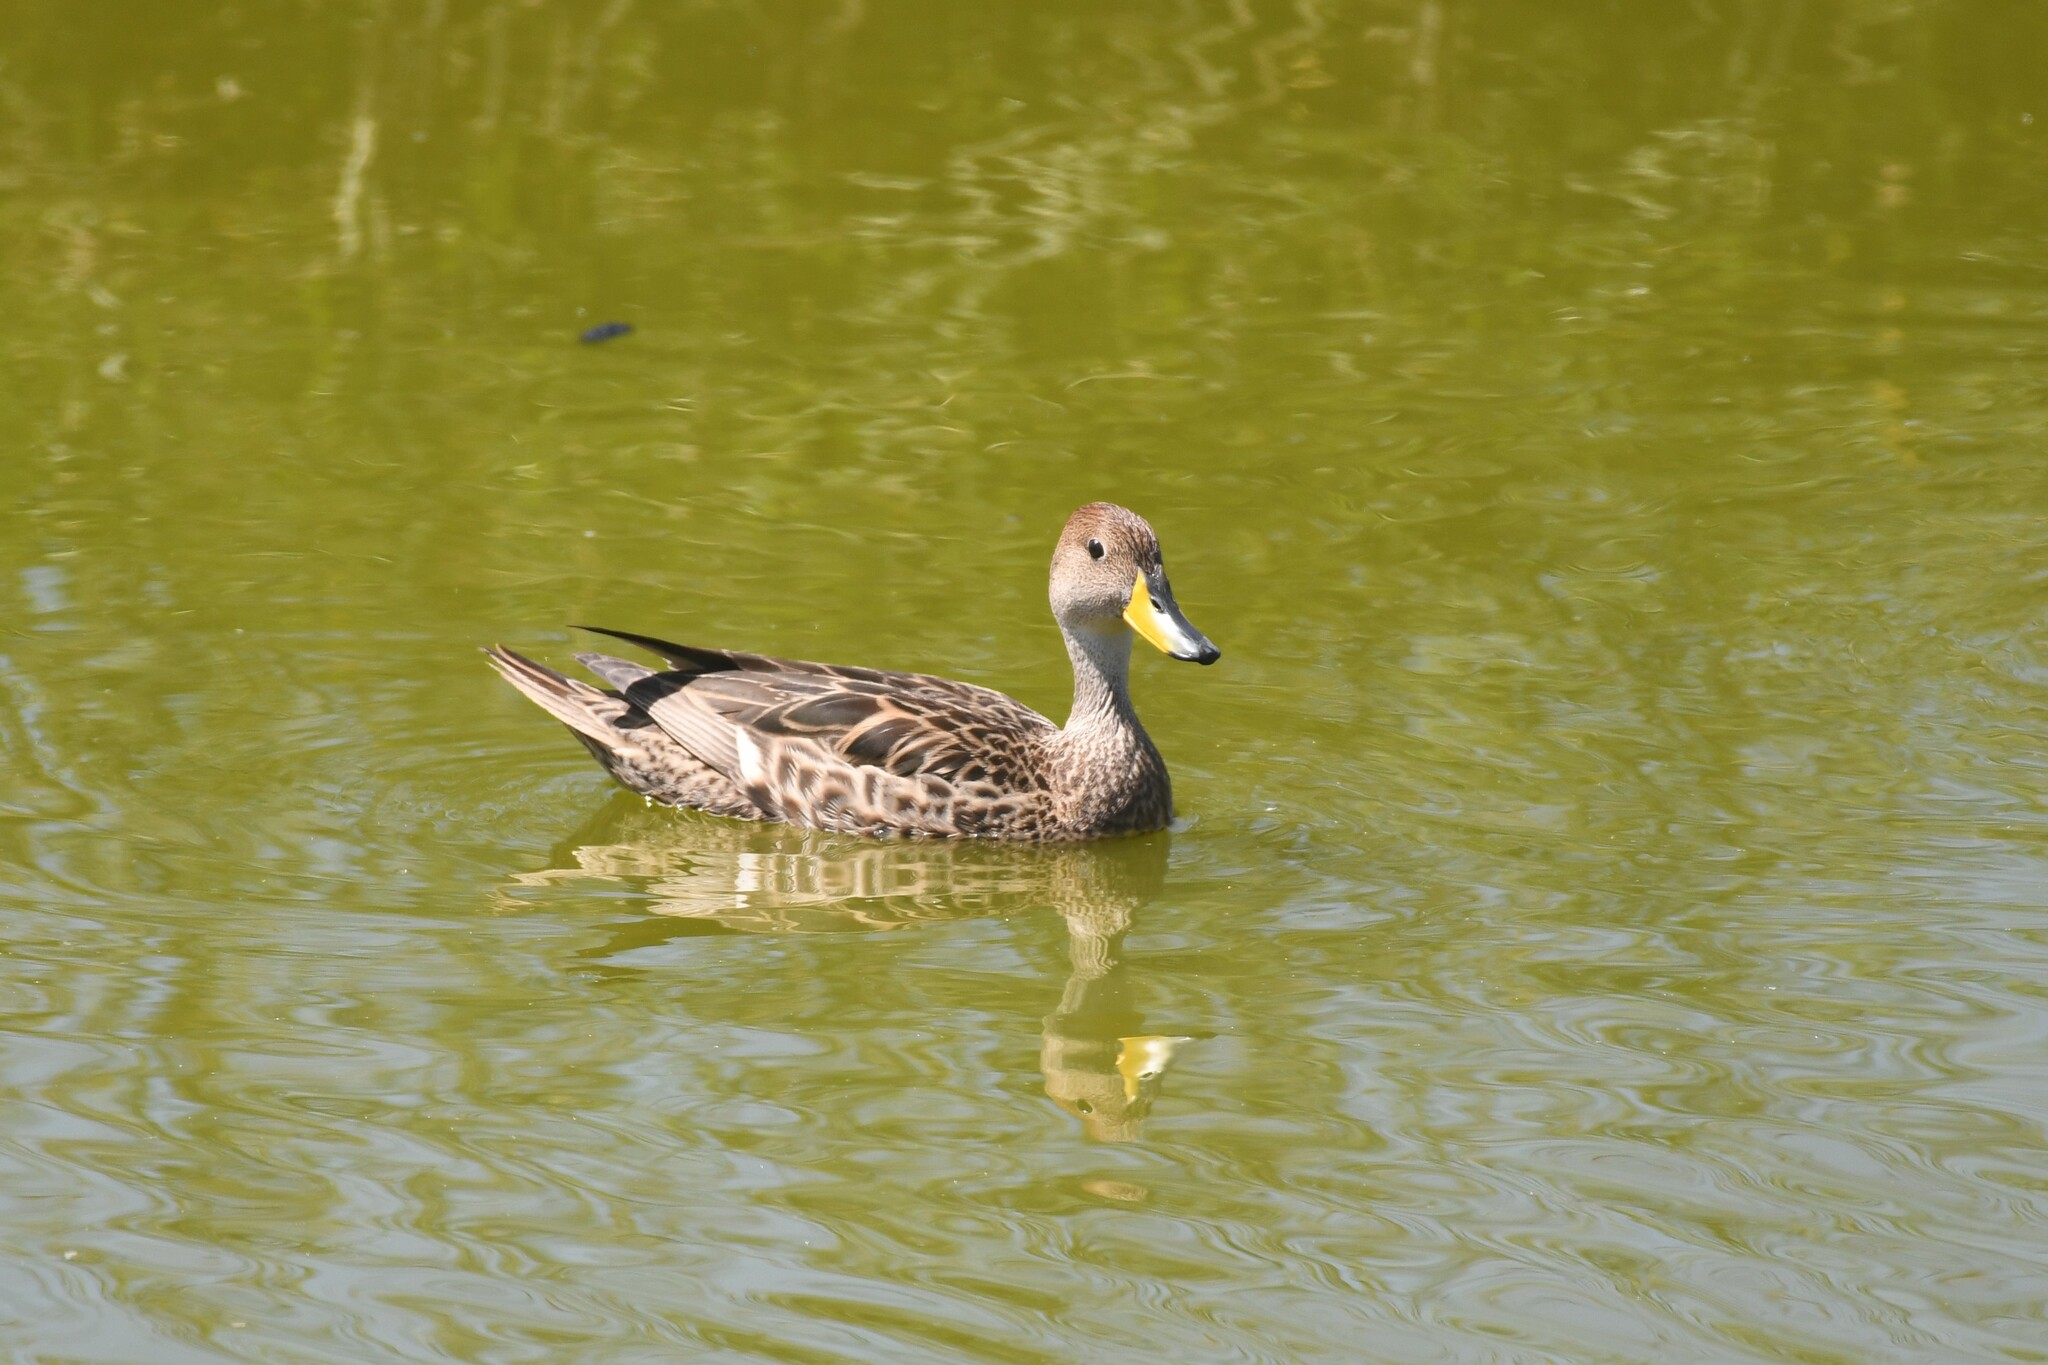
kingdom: Animalia
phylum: Chordata
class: Aves
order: Anseriformes
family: Anatidae
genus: Anas
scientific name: Anas georgica
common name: Yellow-billed pintail
